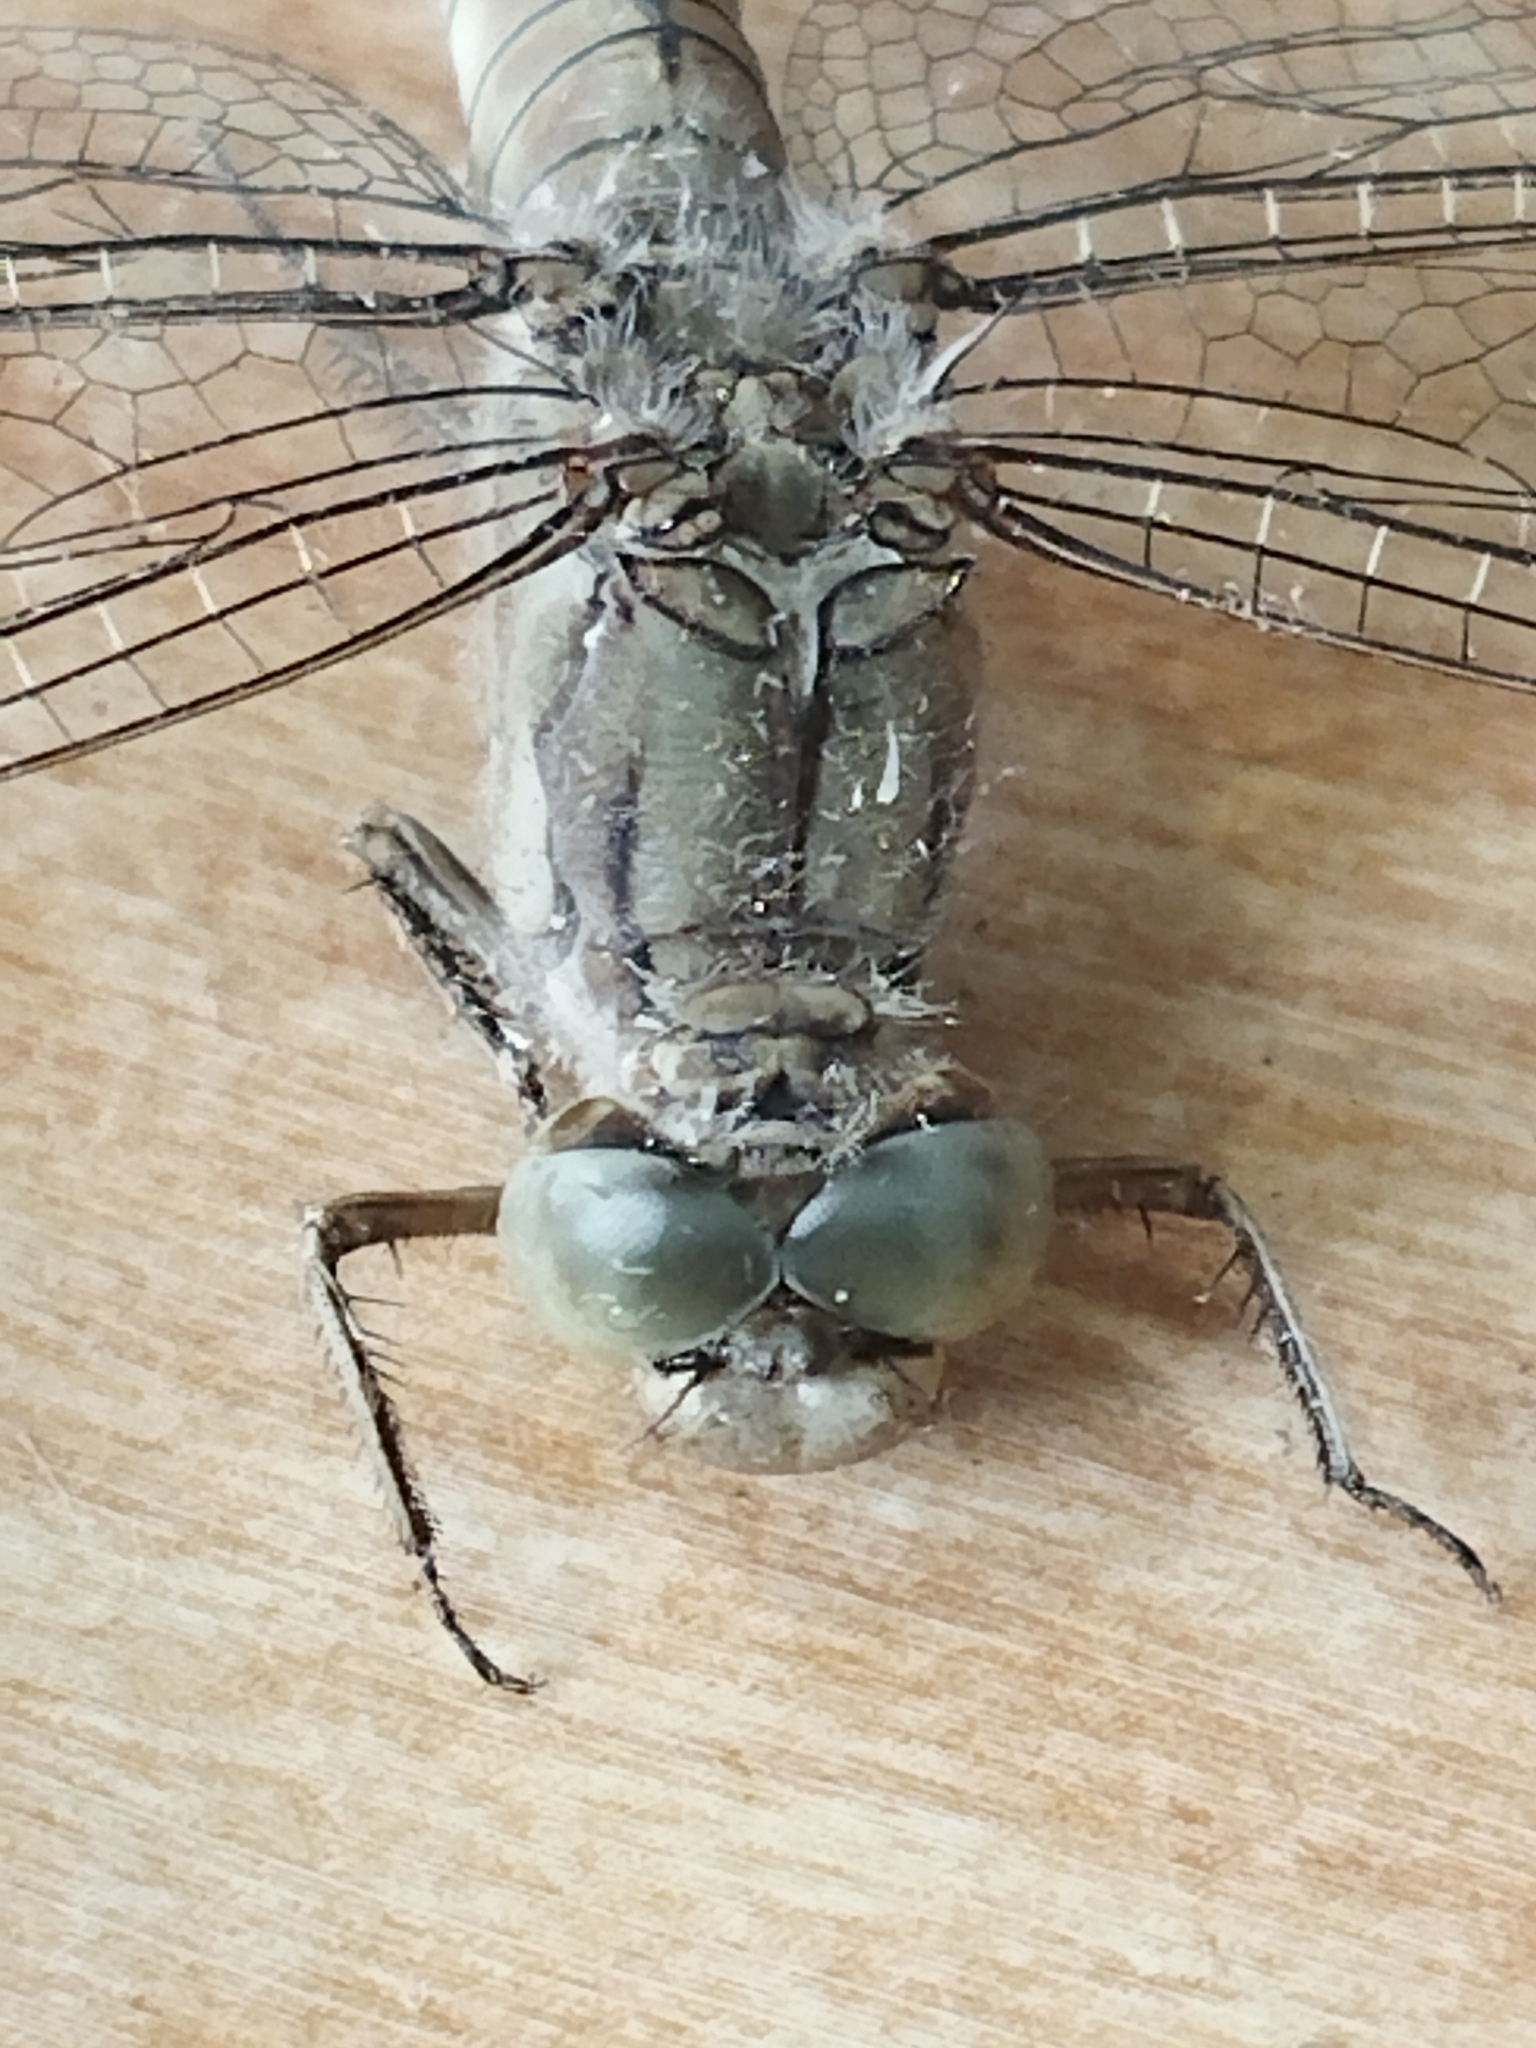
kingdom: Animalia
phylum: Arthropoda
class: Insecta
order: Odonata
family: Libellulidae
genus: Orthetrum
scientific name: Orthetrum brunneum
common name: Southern skimmer
